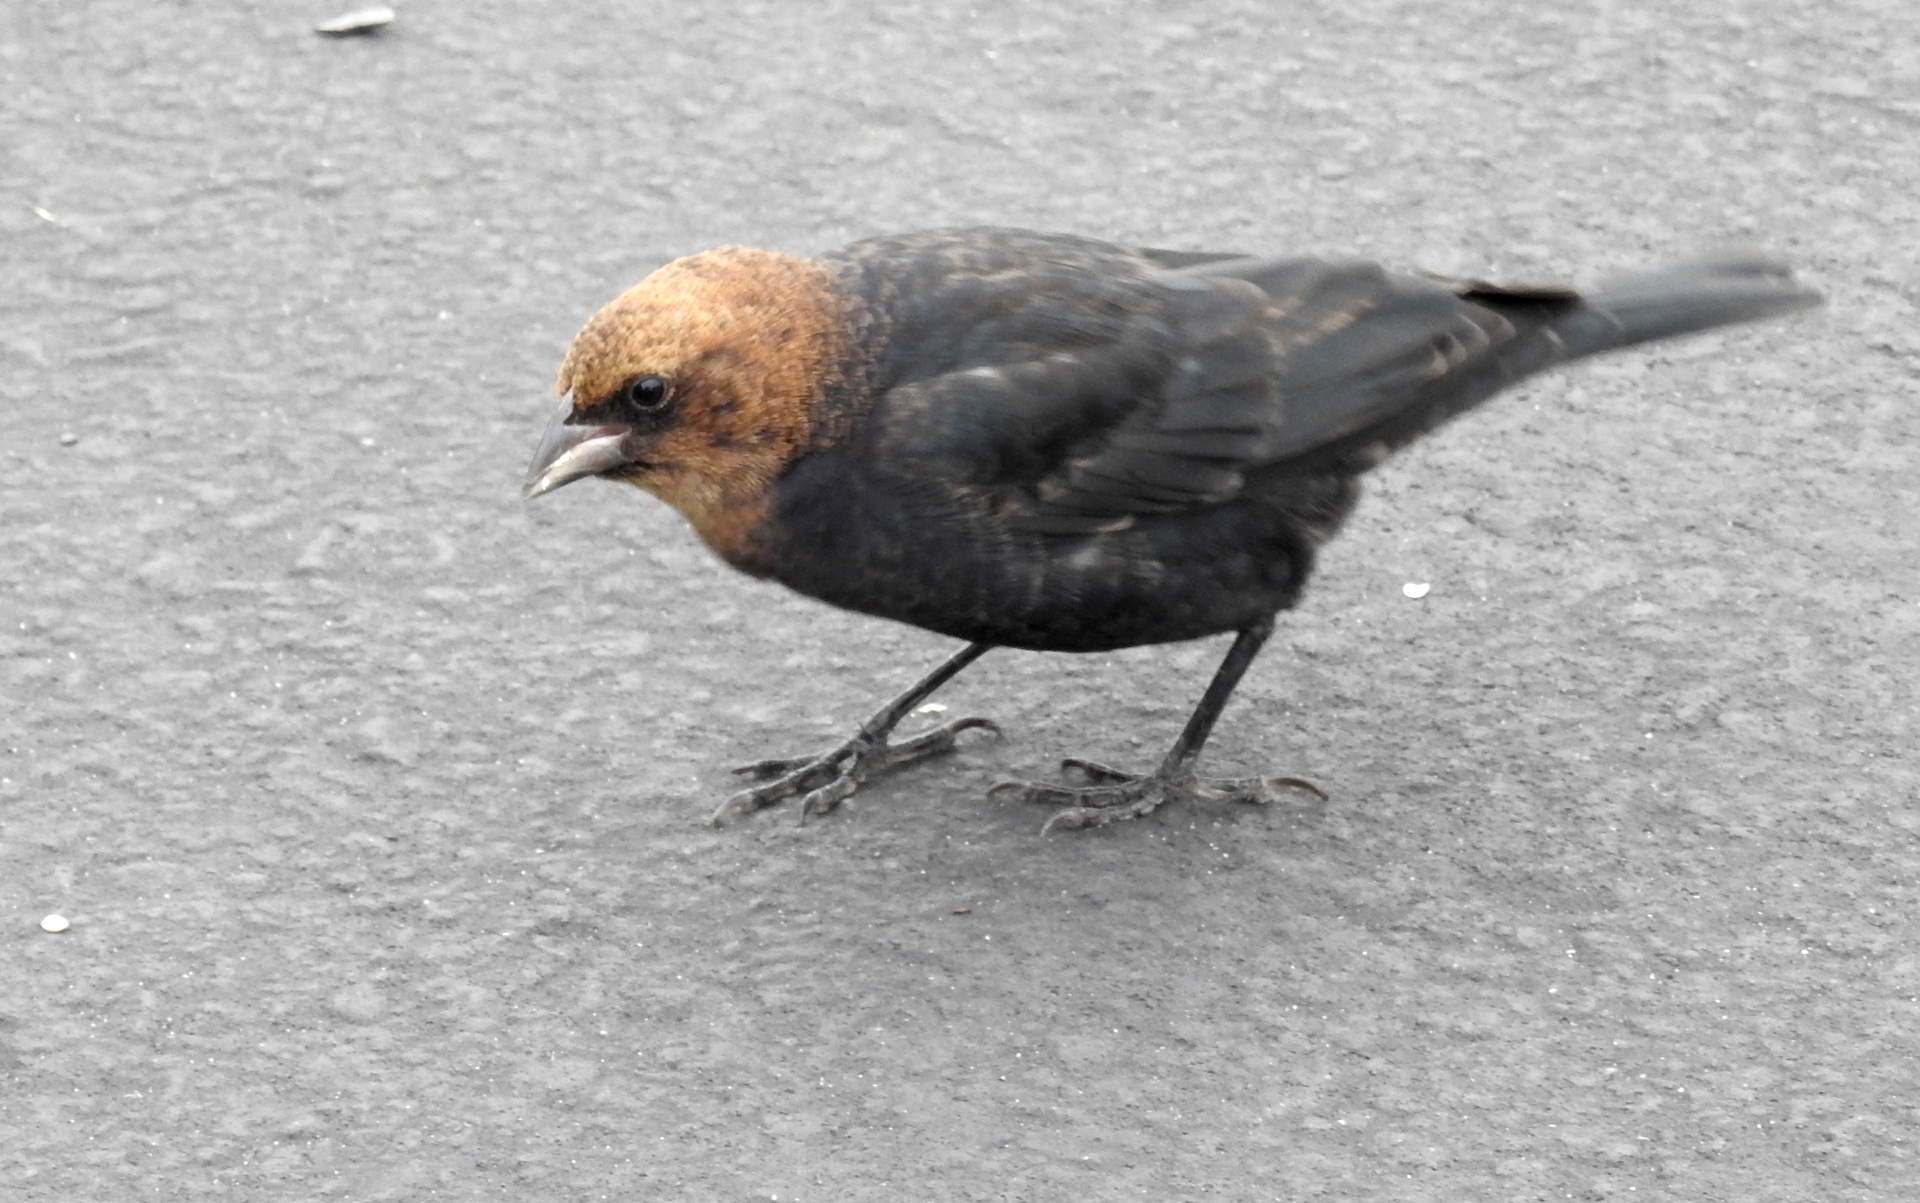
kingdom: Animalia
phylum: Chordata
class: Aves
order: Passeriformes
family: Icteridae
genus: Molothrus
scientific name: Molothrus ater
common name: Brown-headed cowbird
